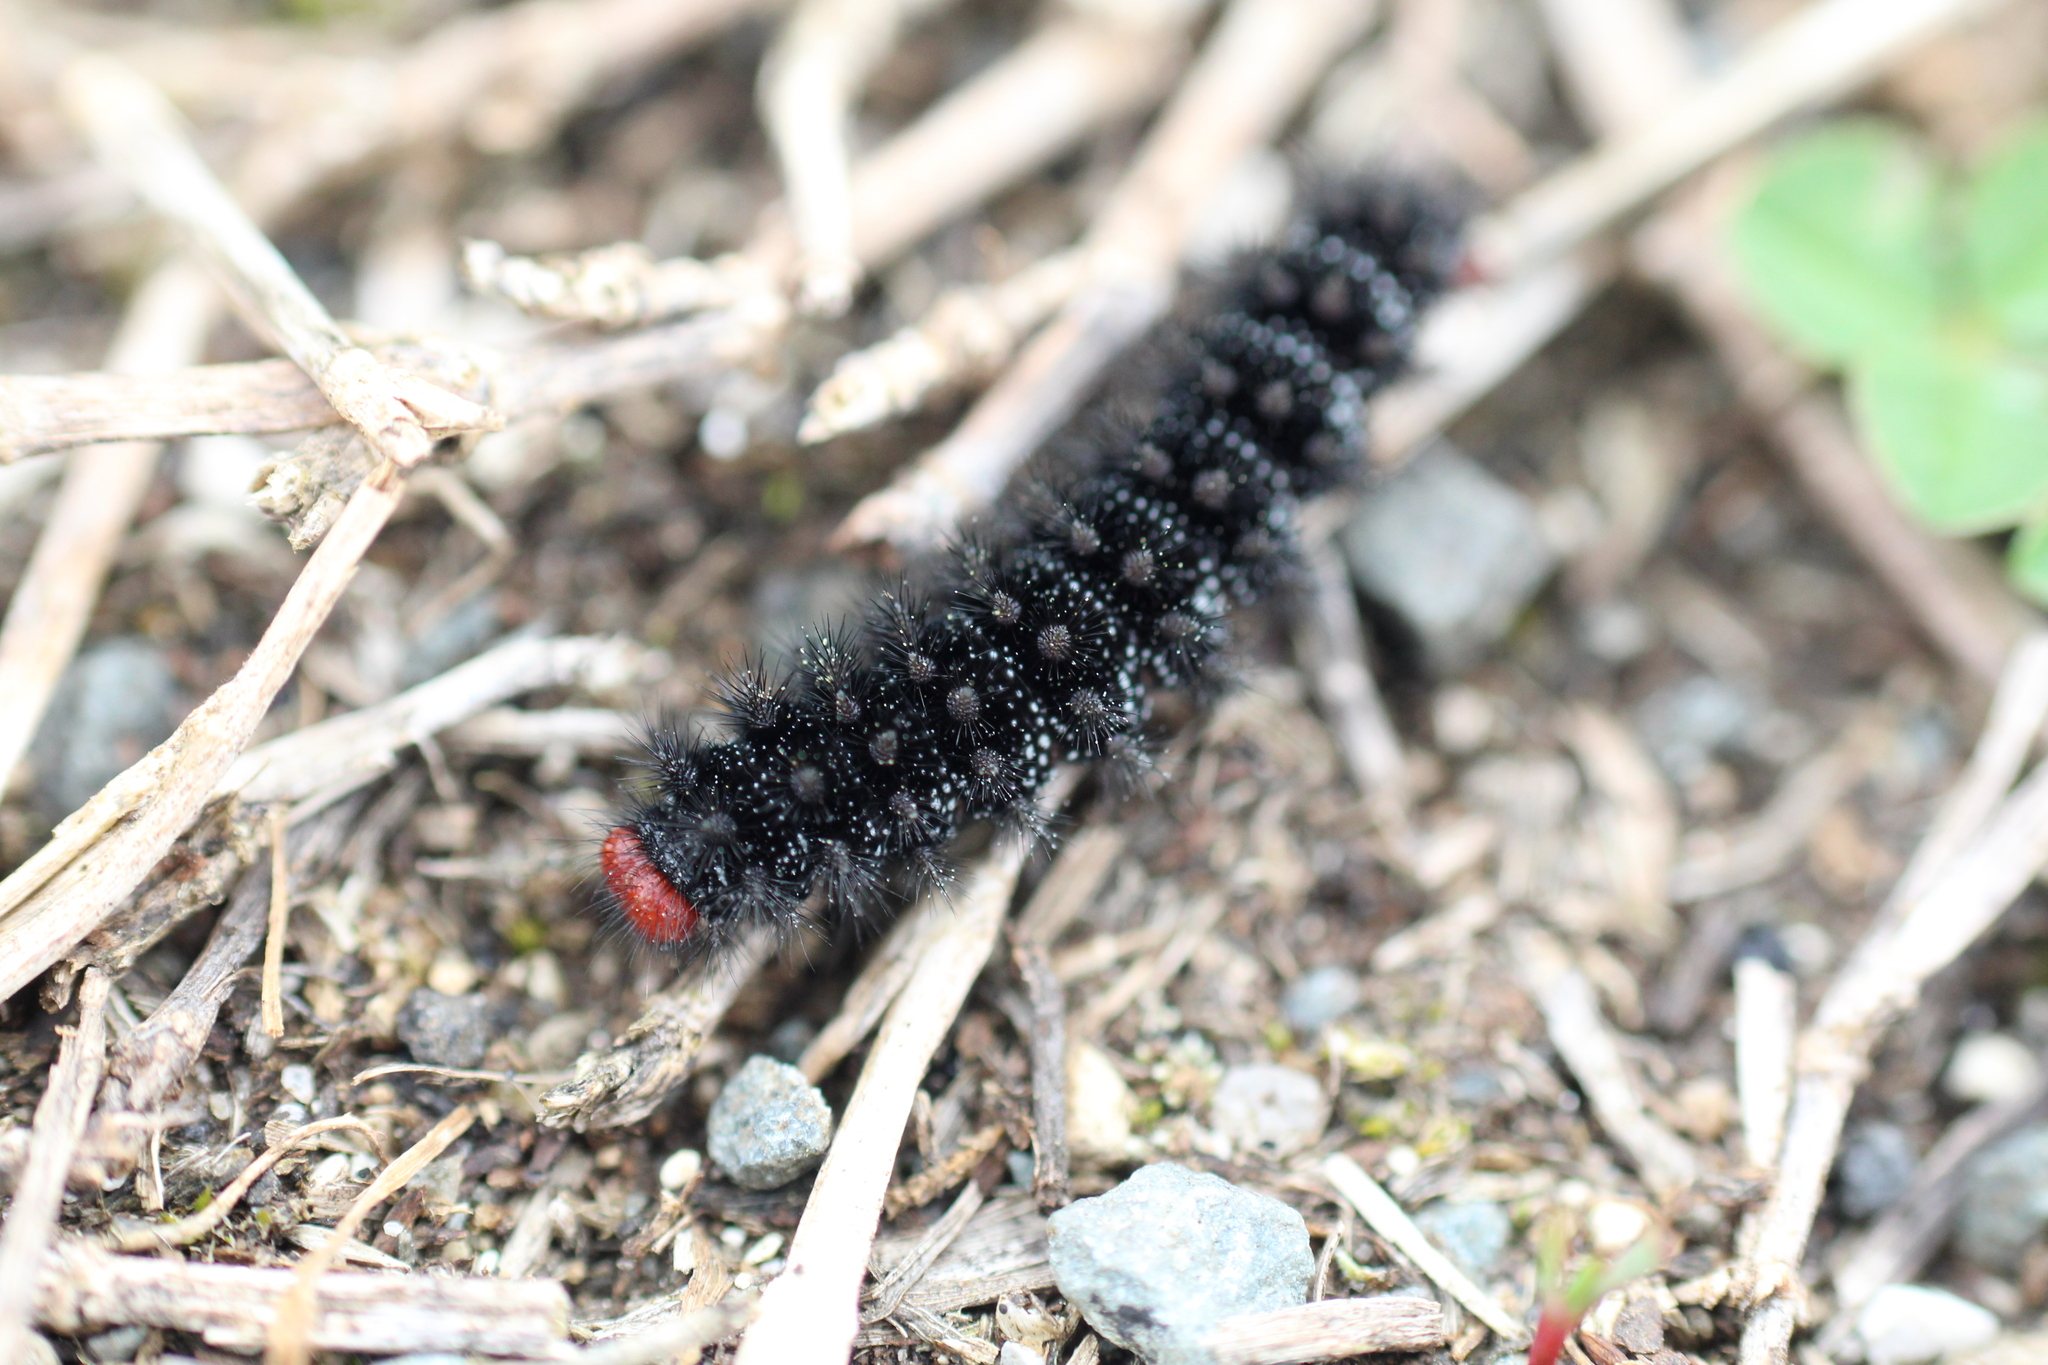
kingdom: Animalia
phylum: Arthropoda
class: Insecta
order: Lepidoptera
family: Nymphalidae
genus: Melitaea
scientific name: Melitaea cinxia
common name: Glanville fritillary
